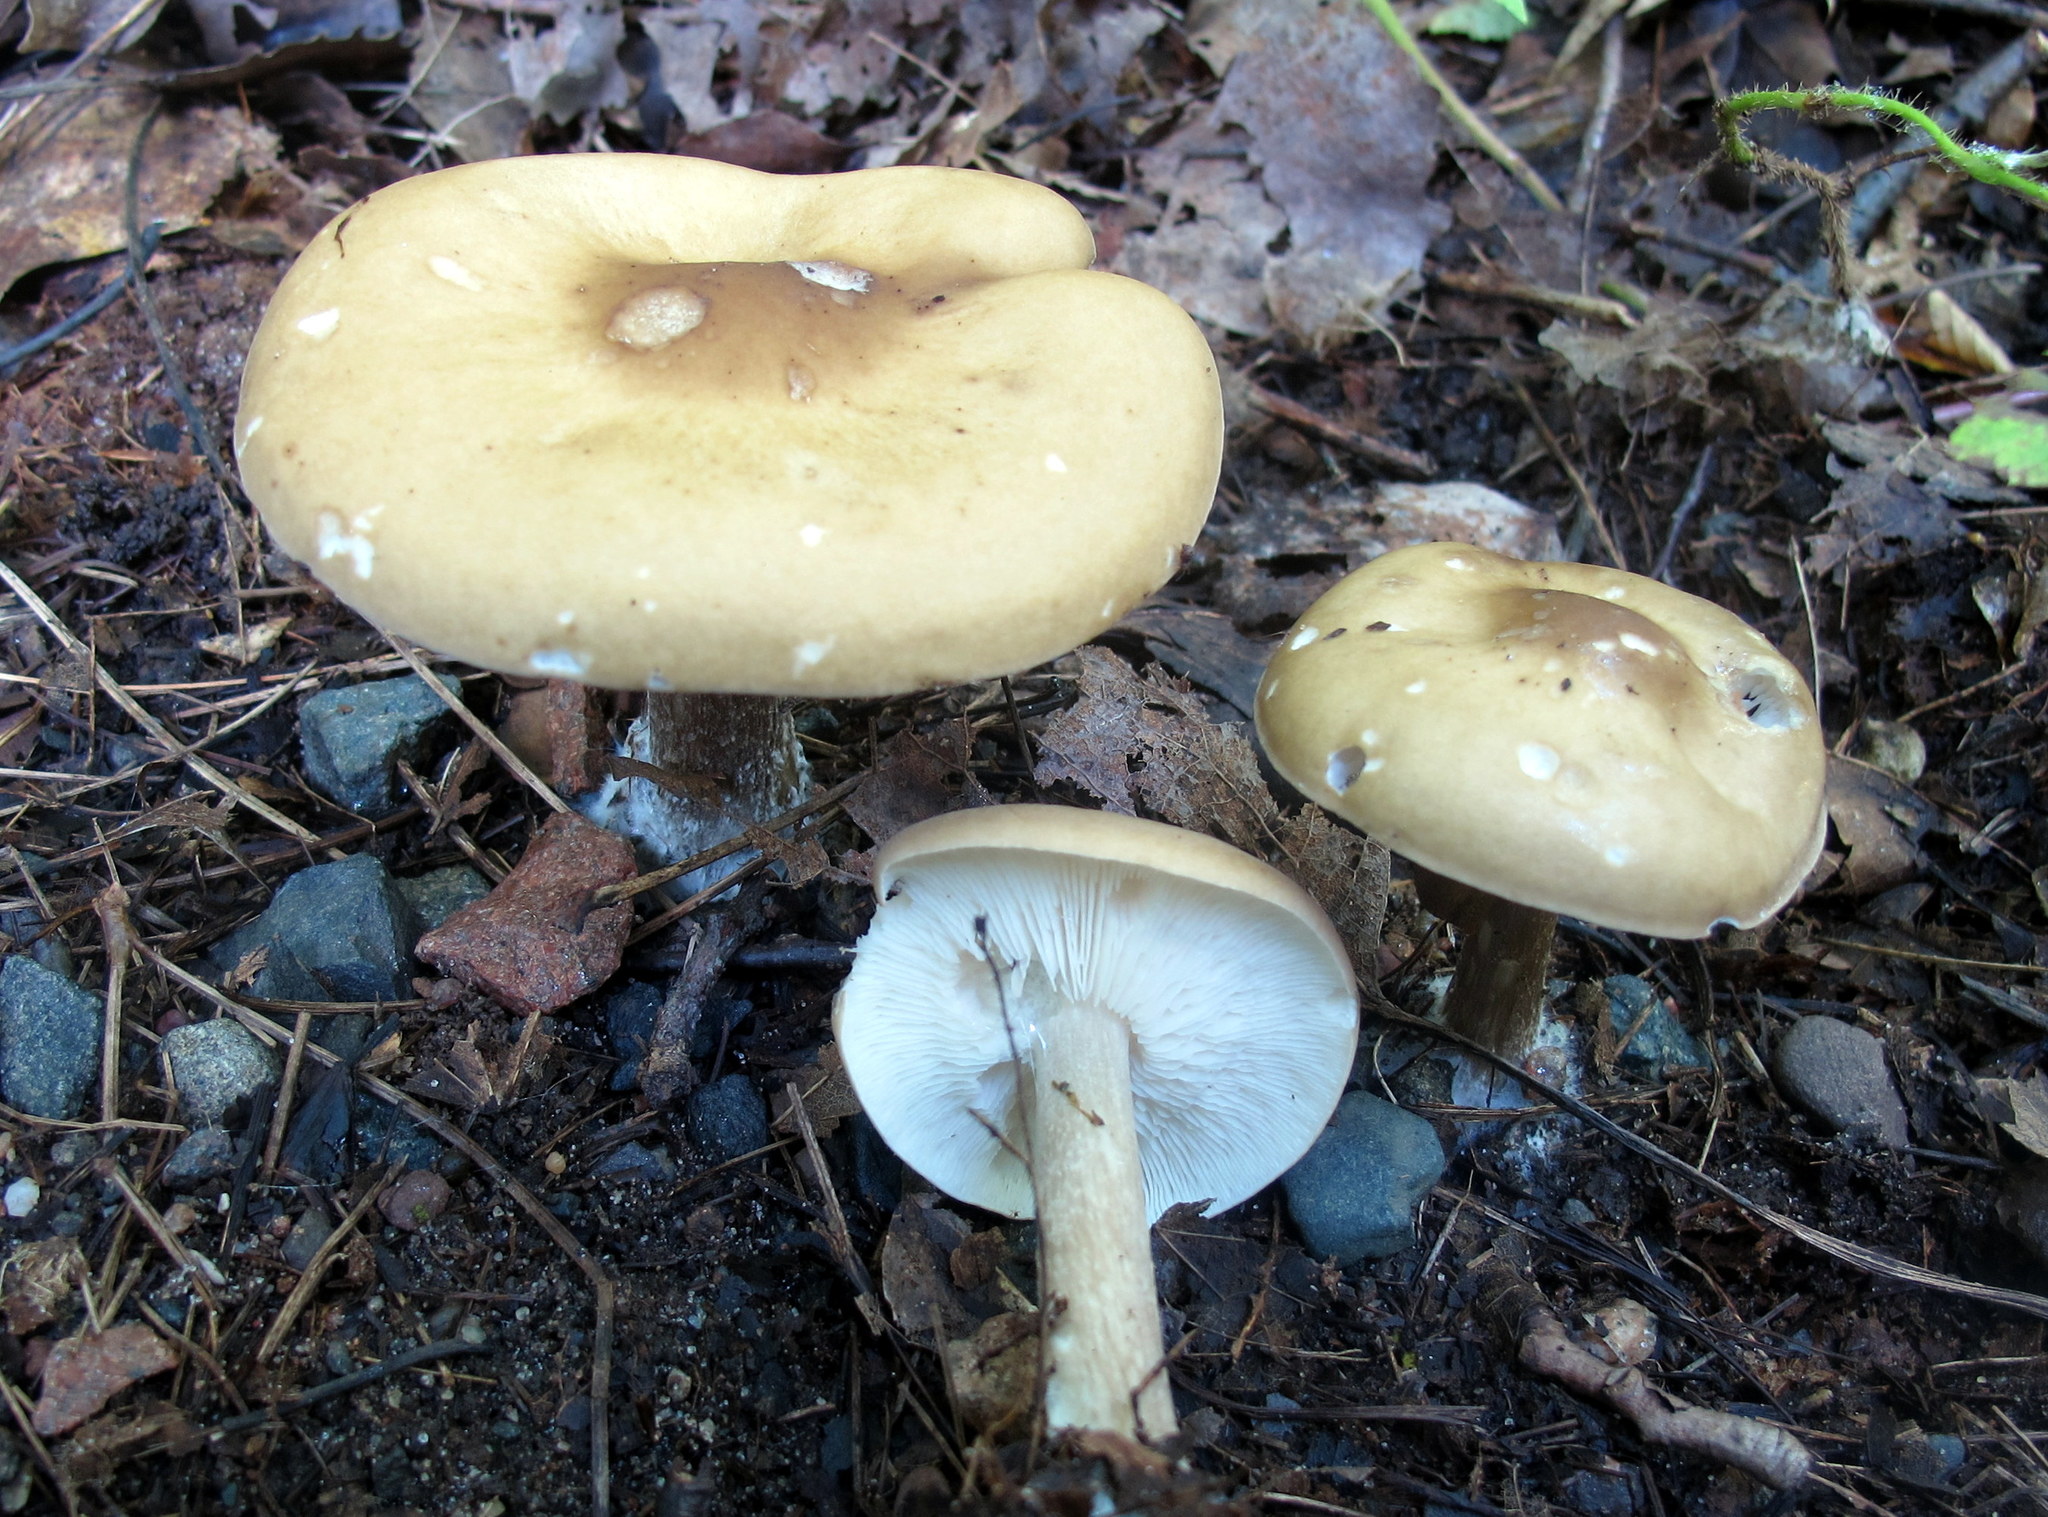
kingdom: Fungi
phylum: Basidiomycota
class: Agaricomycetes
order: Agaricales
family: Tricholomataceae
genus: Melanoleuca
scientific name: Melanoleuca cognata
